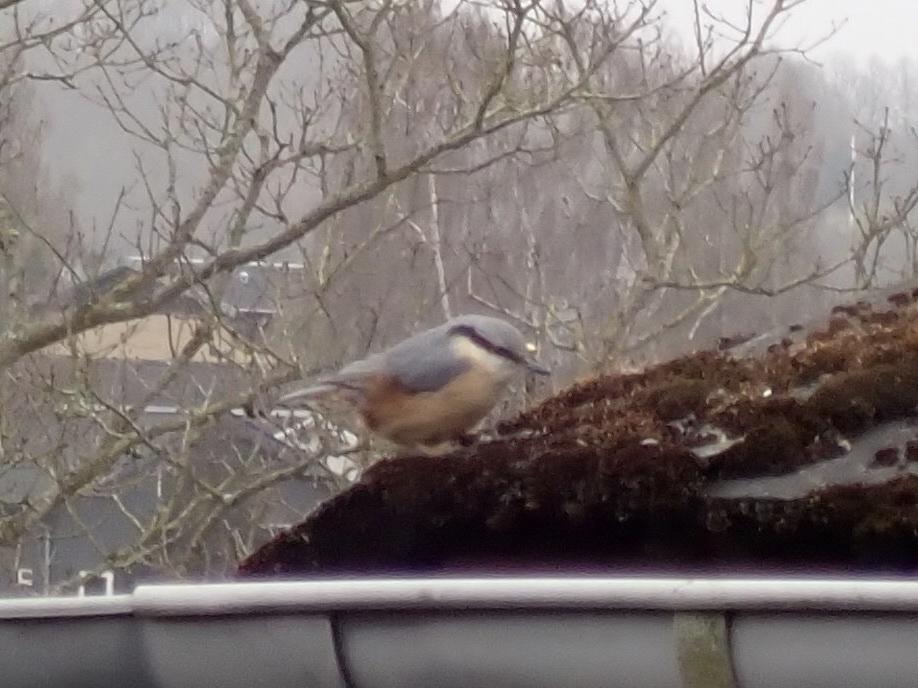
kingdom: Animalia
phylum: Chordata
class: Aves
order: Passeriformes
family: Sittidae
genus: Sitta
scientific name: Sitta europaea
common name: Eurasian nuthatch
